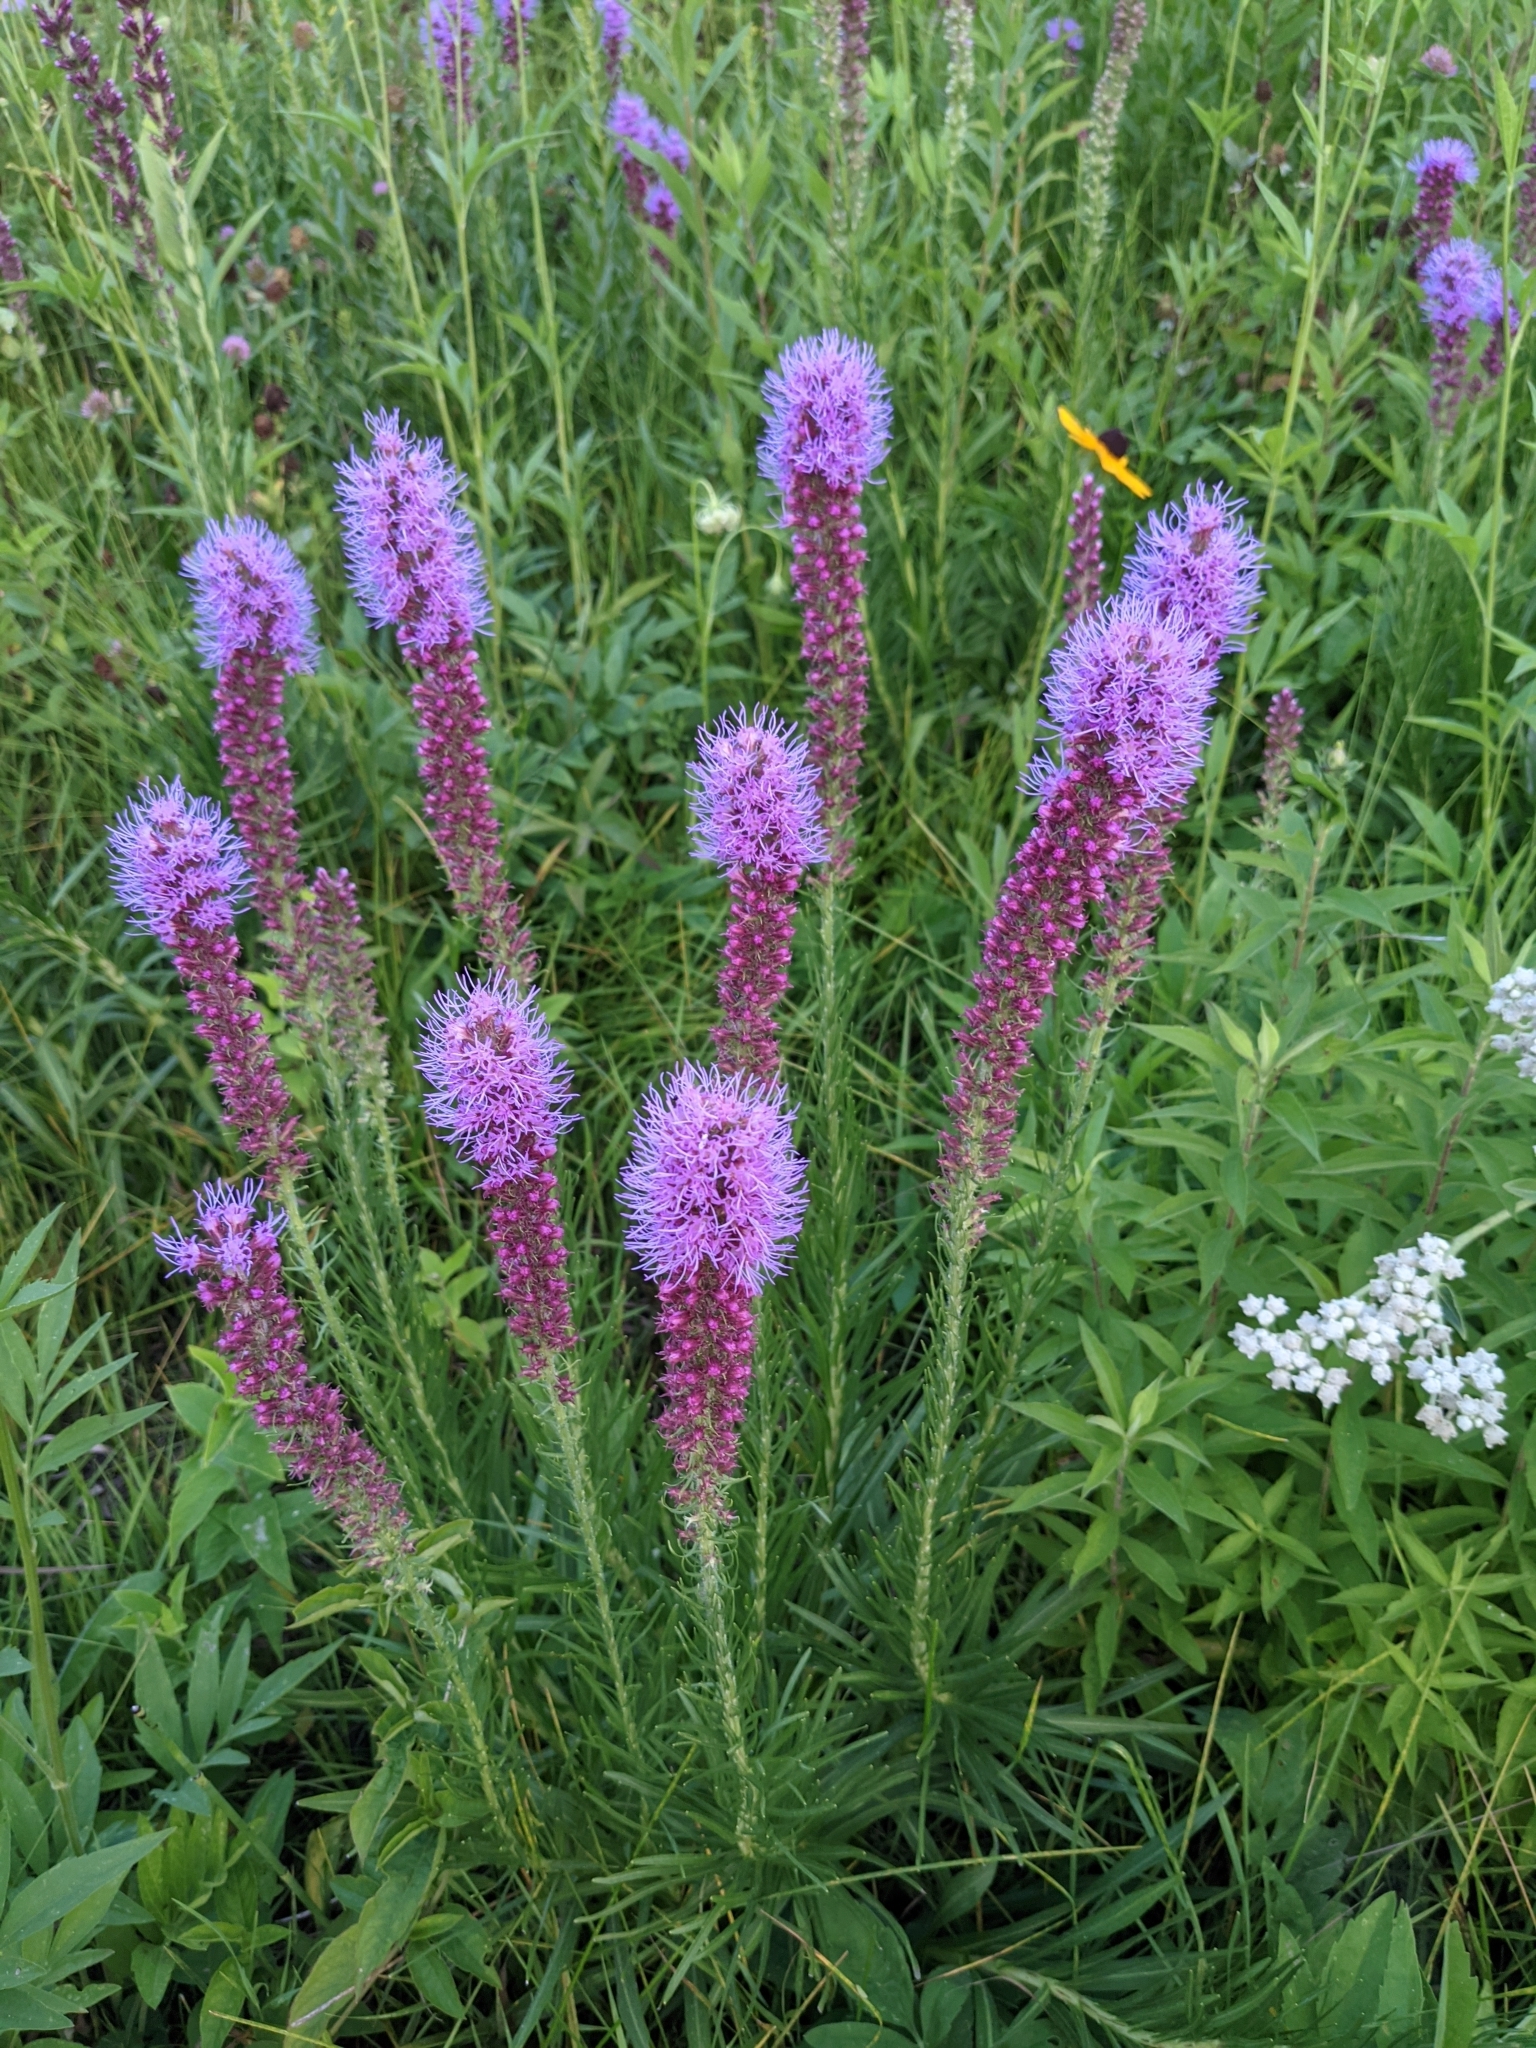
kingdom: Plantae
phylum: Tracheophyta
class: Magnoliopsida
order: Asterales
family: Asteraceae
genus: Liatris
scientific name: Liatris pycnostachya
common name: Cattail gayfeather
